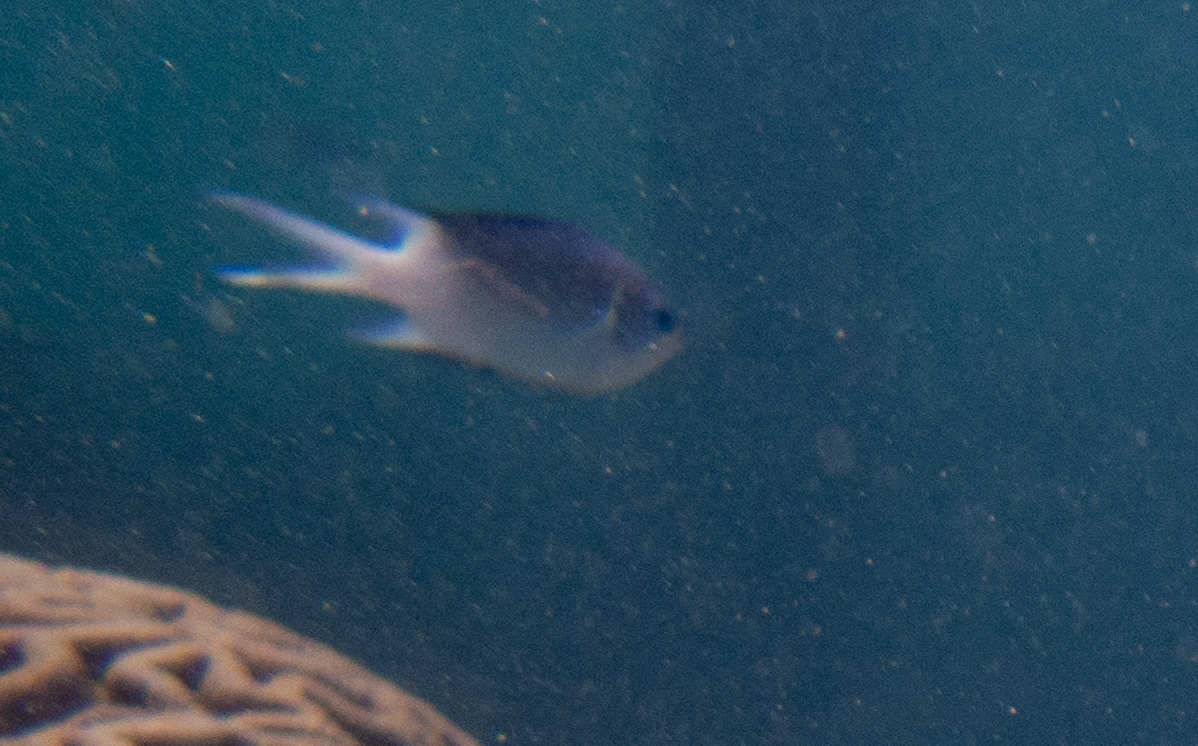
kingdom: Animalia
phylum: Chordata
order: Perciformes
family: Pomacentridae
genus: Acanthochromis
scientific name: Acanthochromis polyacanthus
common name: Spiny chromis
